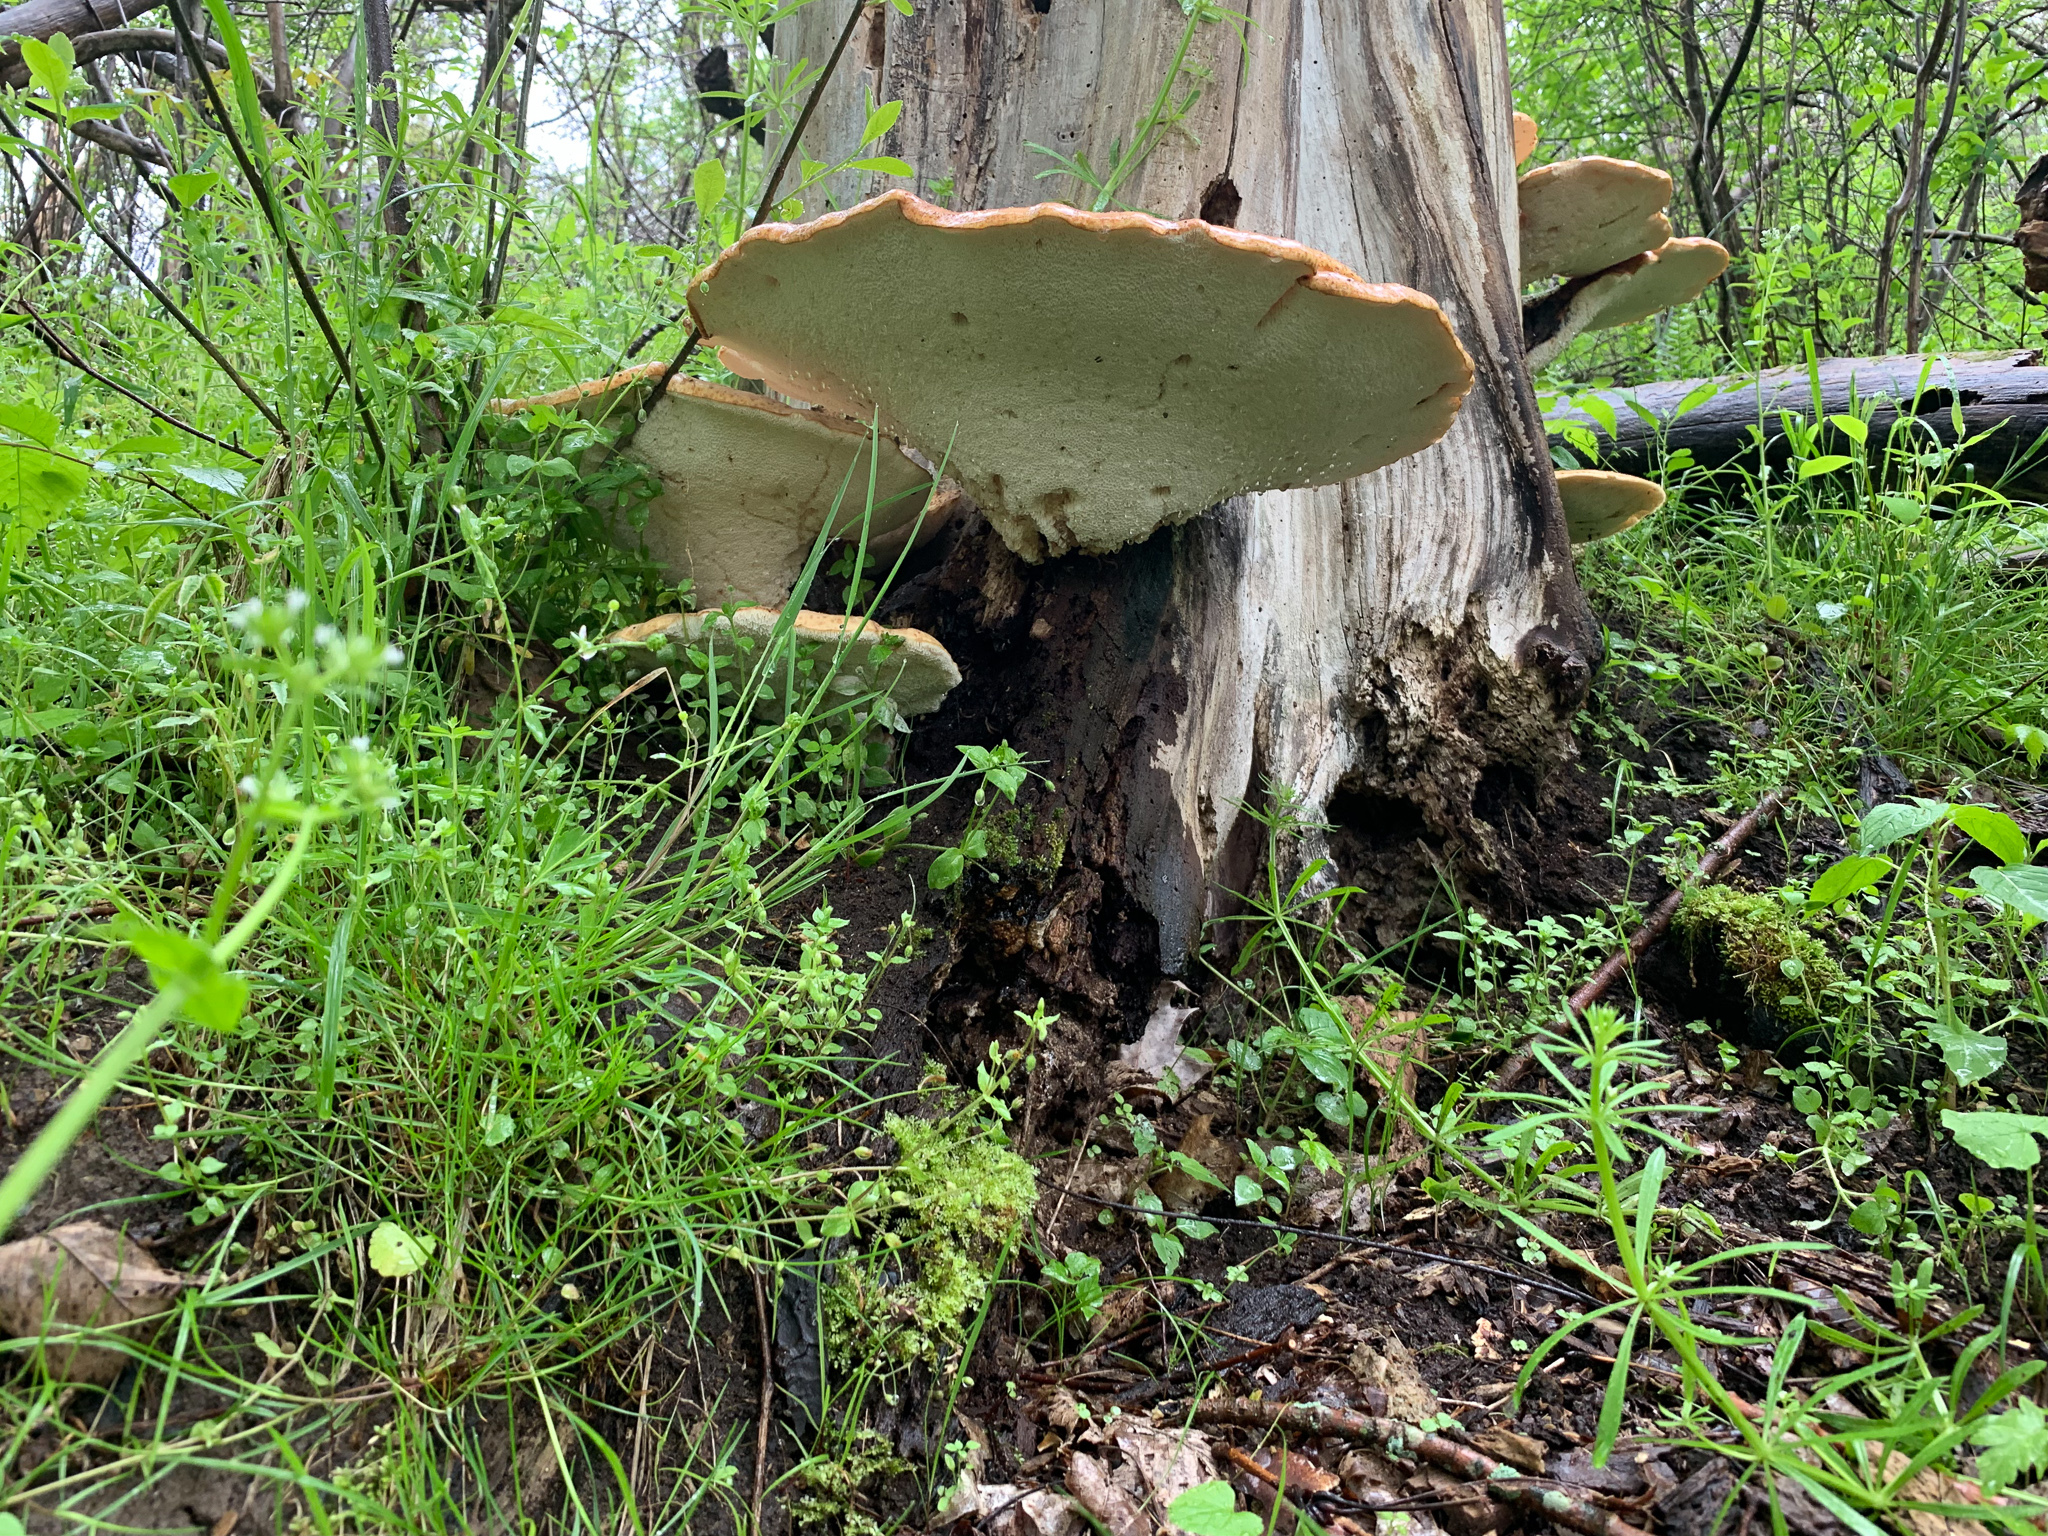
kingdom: Fungi
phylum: Basidiomycota
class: Agaricomycetes
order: Polyporales
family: Polyporaceae
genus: Cerioporus
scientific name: Cerioporus squamosus
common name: Dryad's saddle
